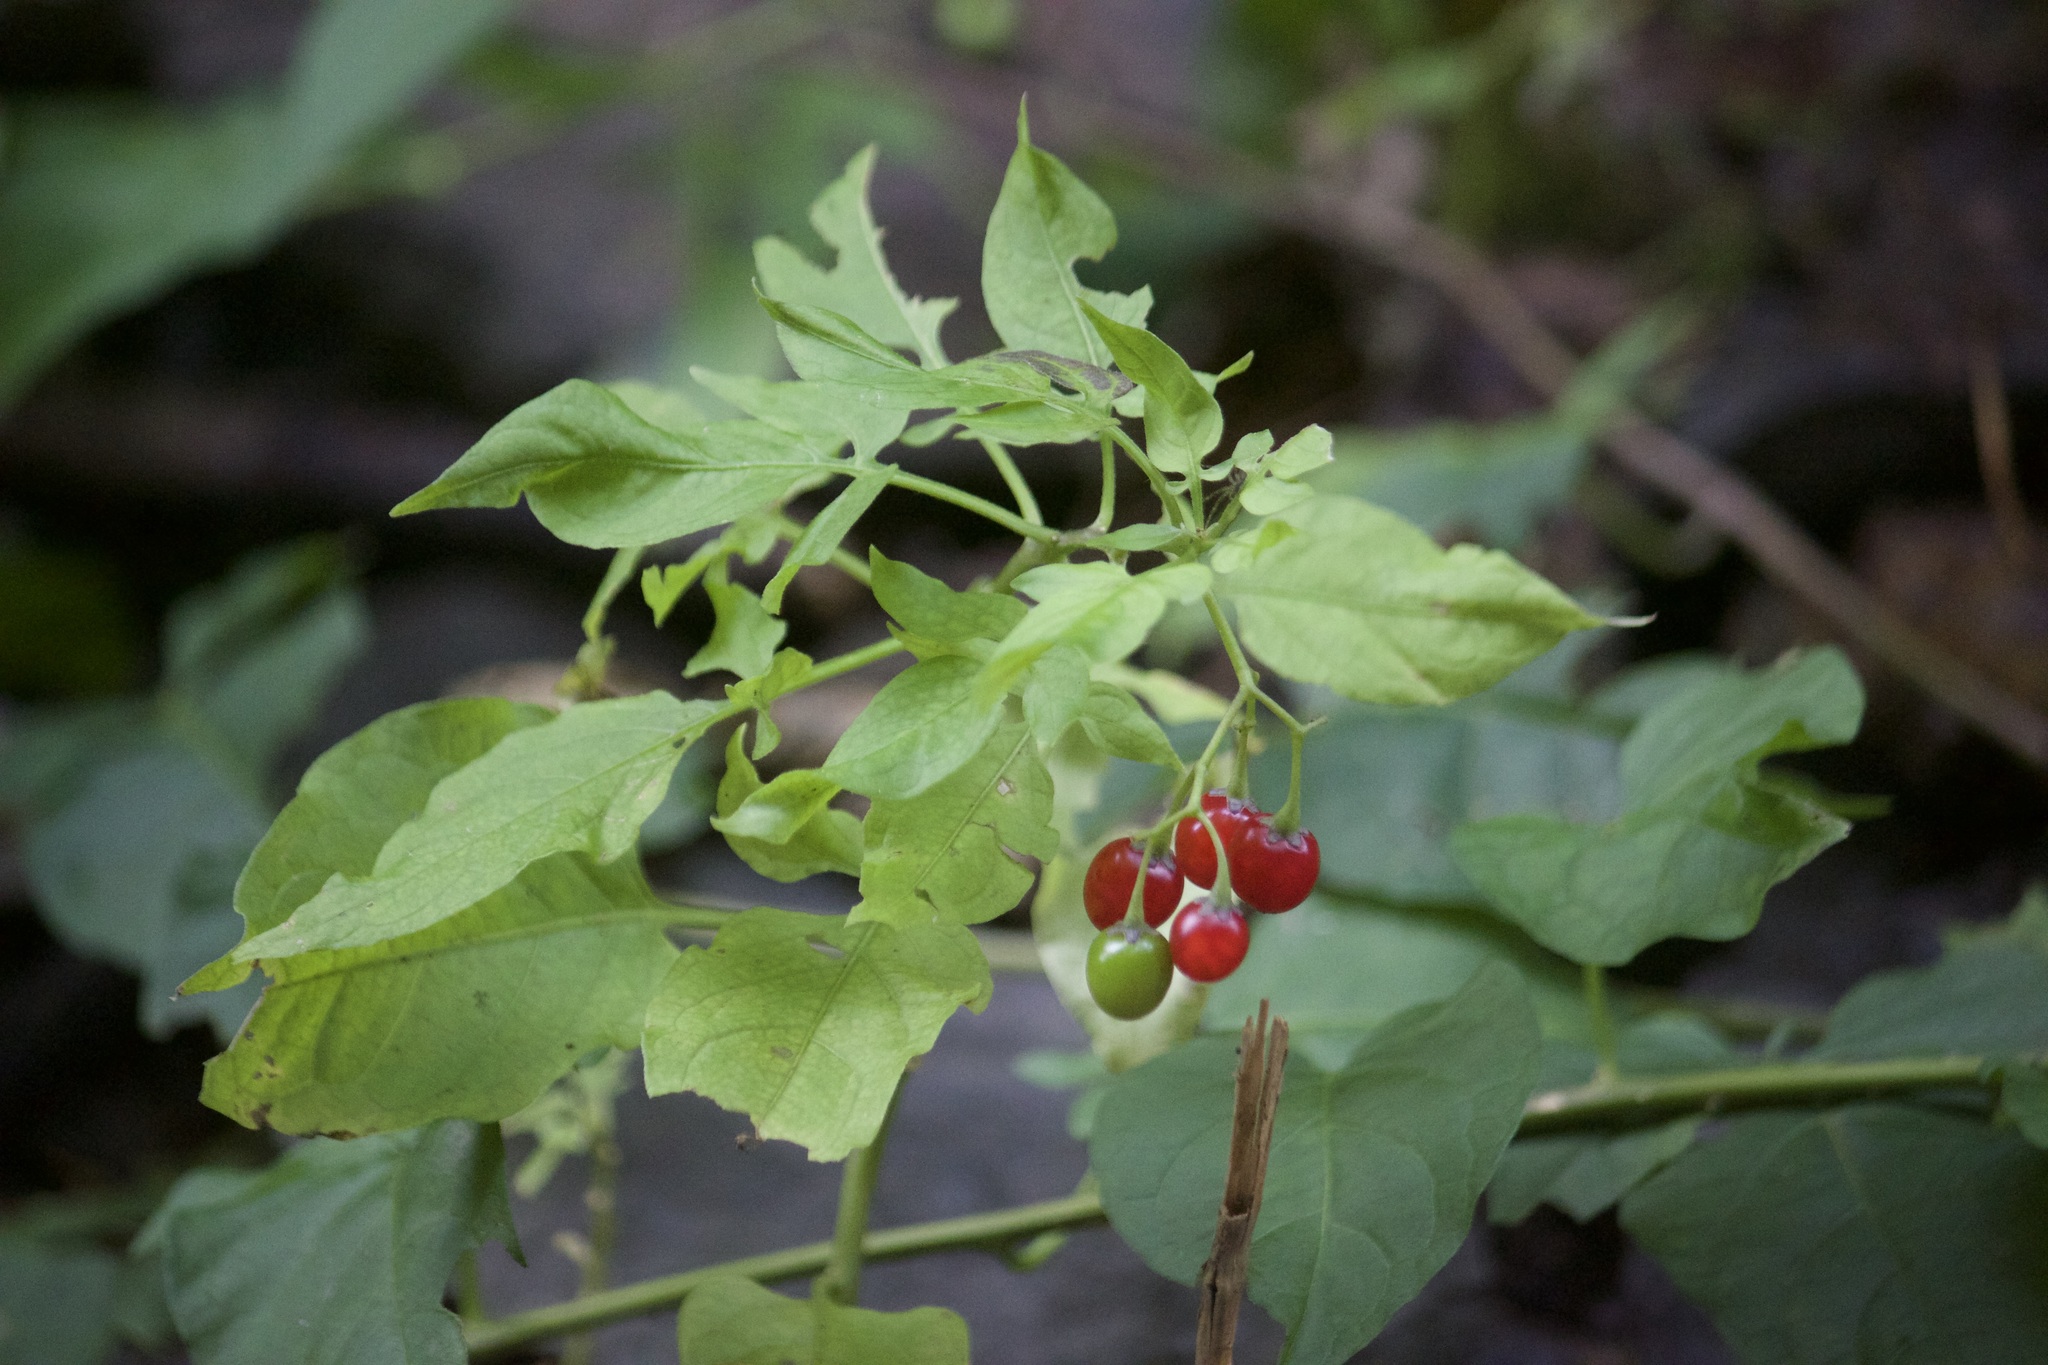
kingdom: Plantae
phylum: Tracheophyta
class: Magnoliopsida
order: Solanales
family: Solanaceae
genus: Solanum
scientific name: Solanum dulcamara
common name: Climbing nightshade
